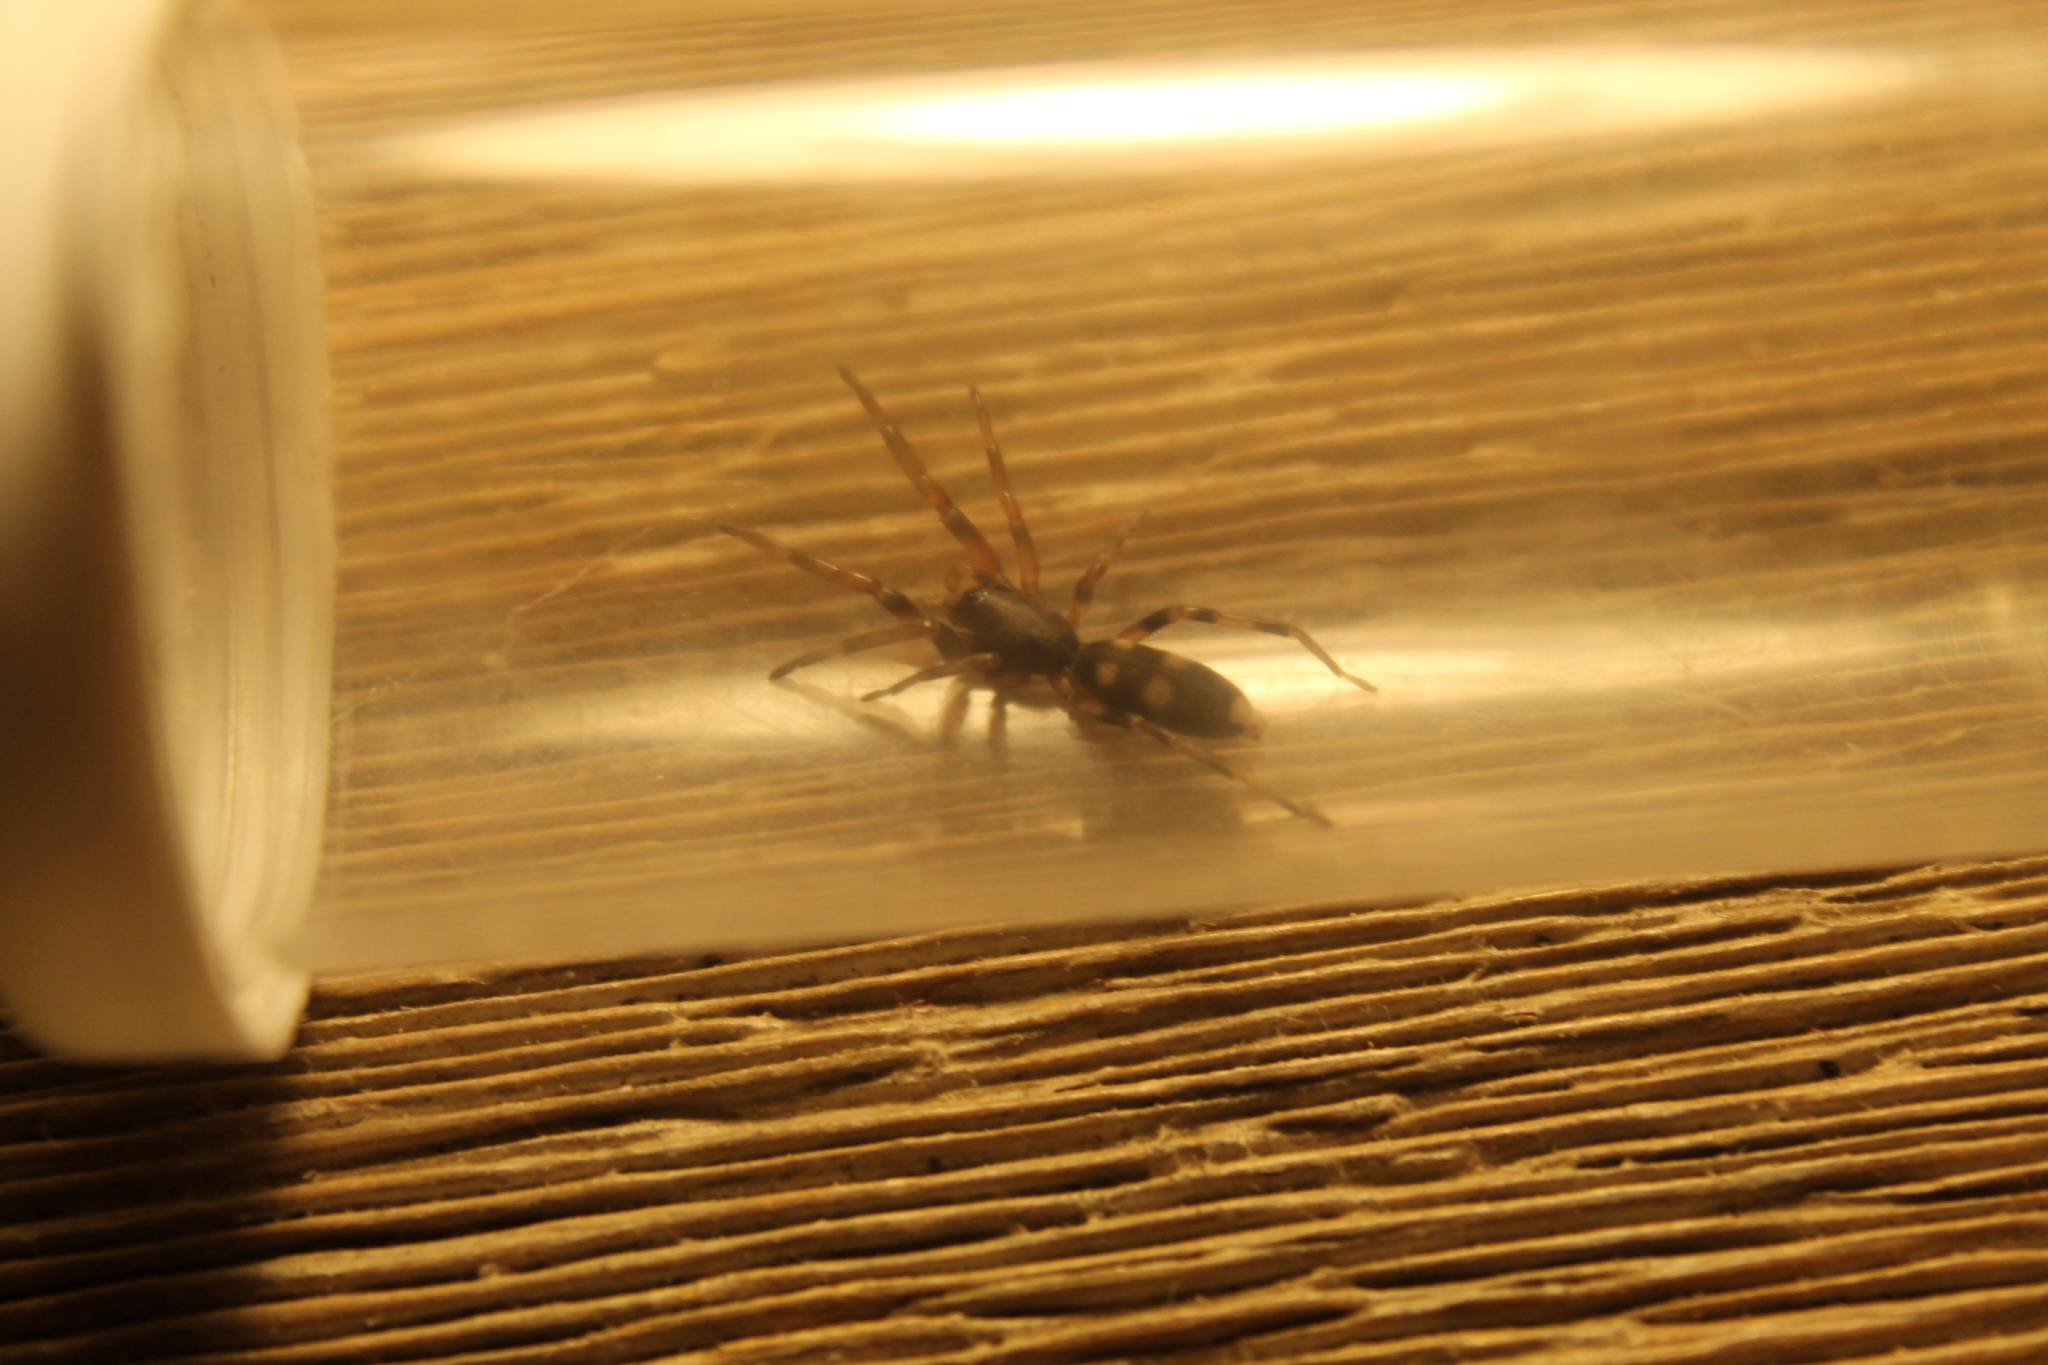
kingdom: Animalia
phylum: Arthropoda
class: Arachnida
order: Araneae
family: Lamponidae
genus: Lampona
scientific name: Lampona murina
